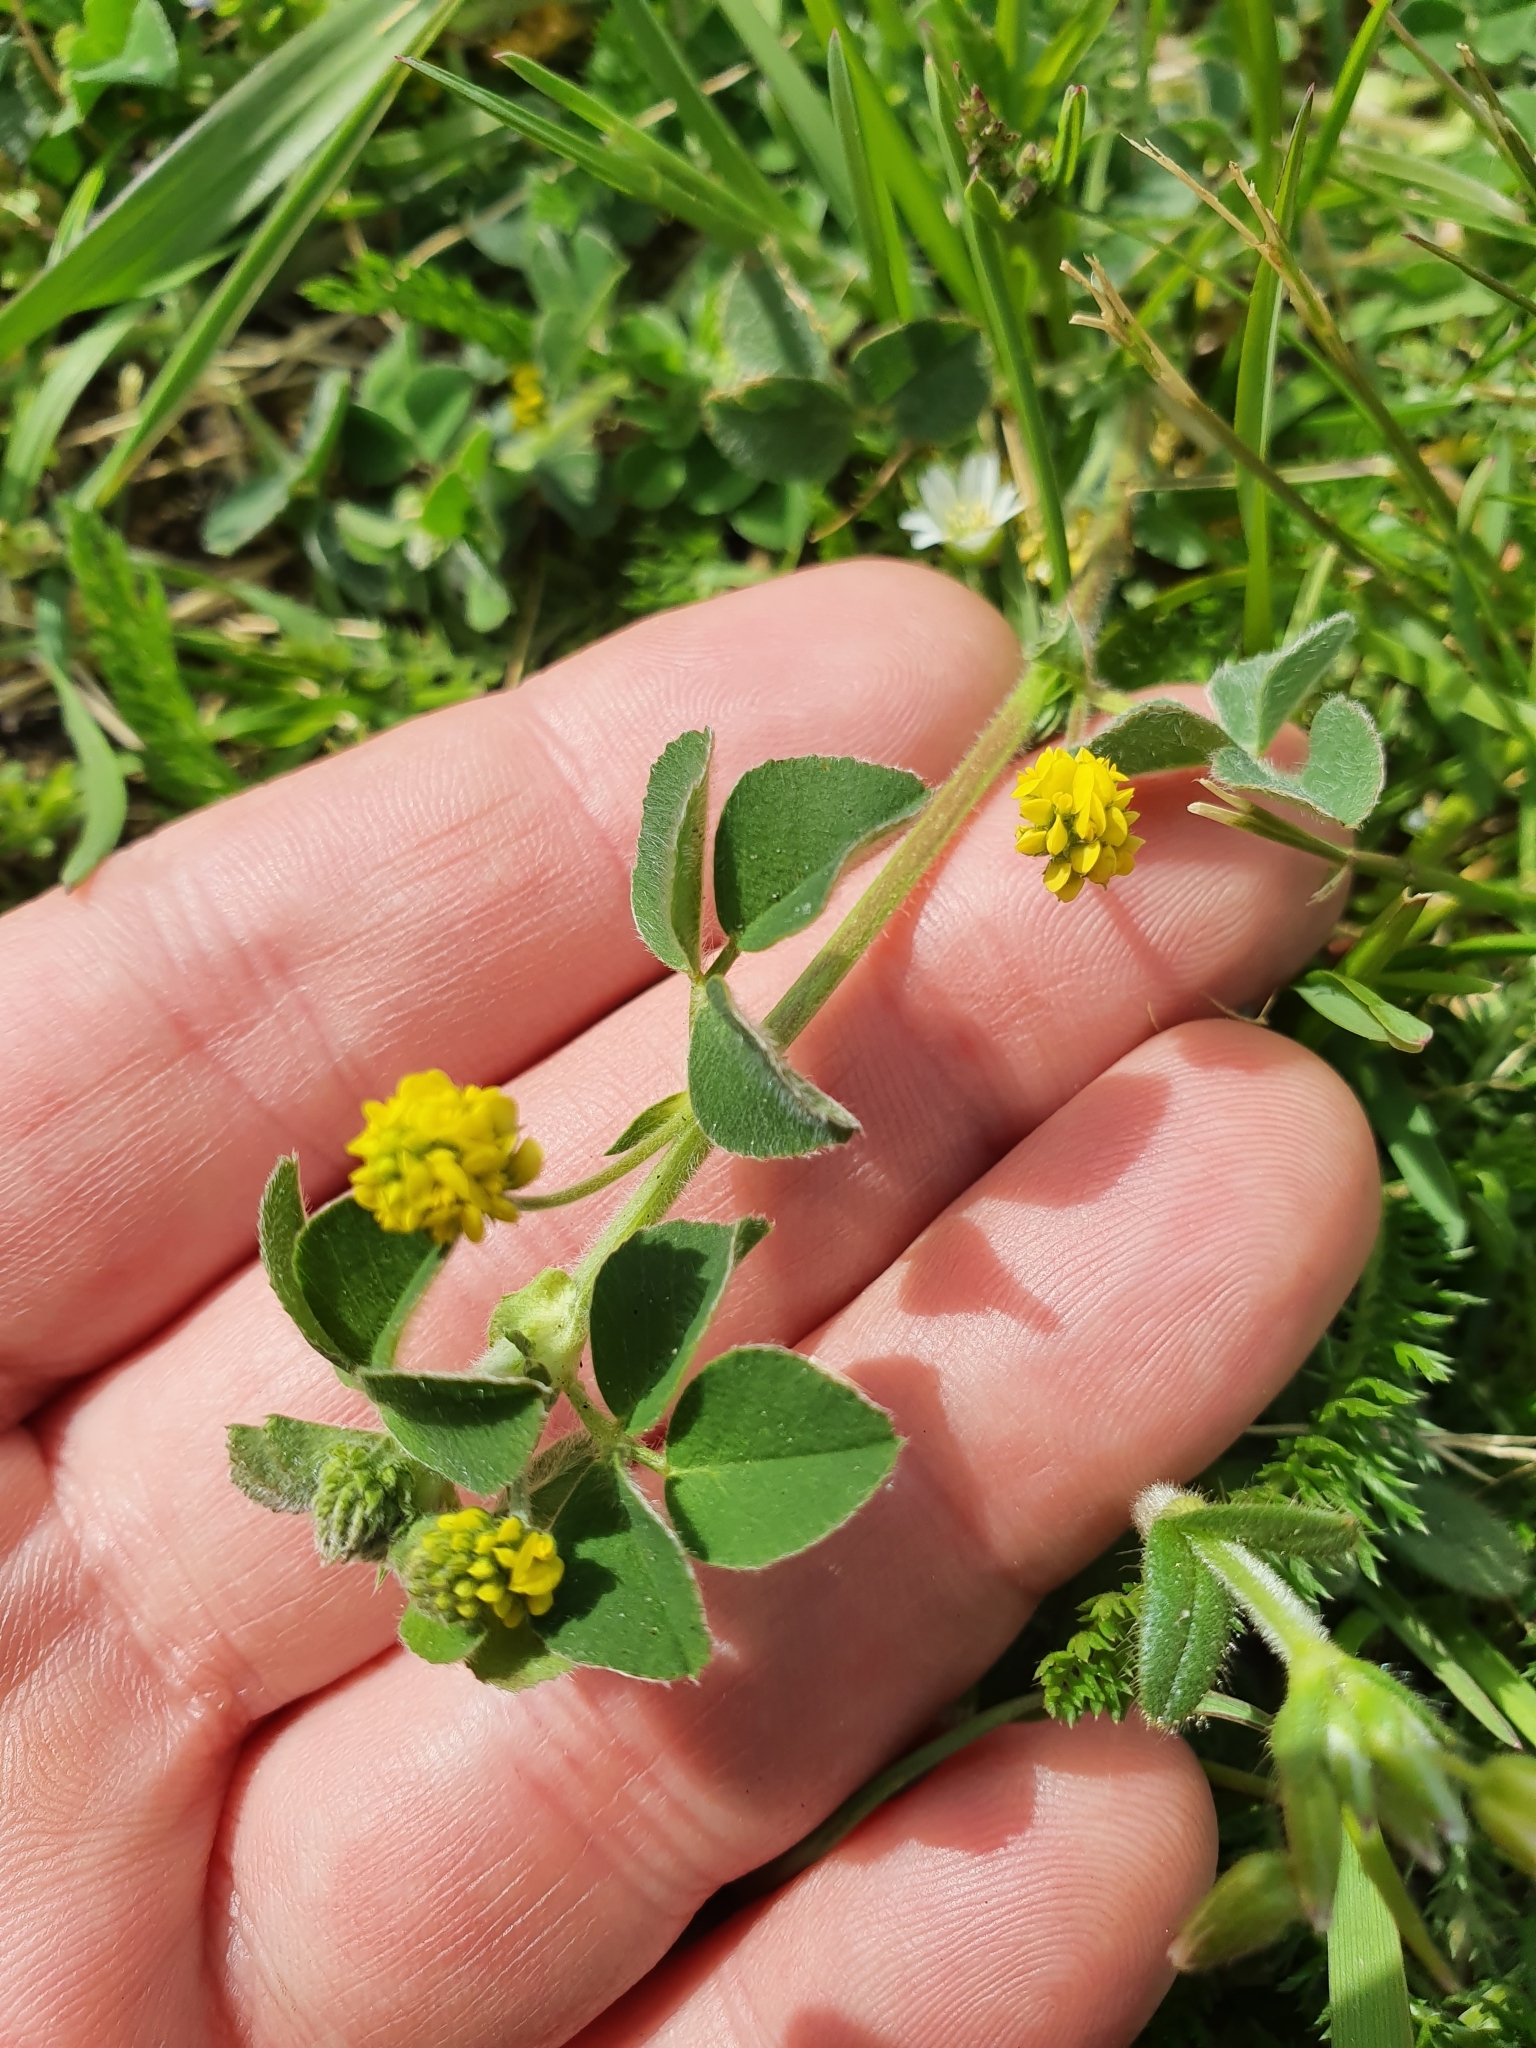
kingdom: Plantae
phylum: Tracheophyta
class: Magnoliopsida
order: Fabales
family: Fabaceae
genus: Medicago
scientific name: Medicago lupulina
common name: Black medick
